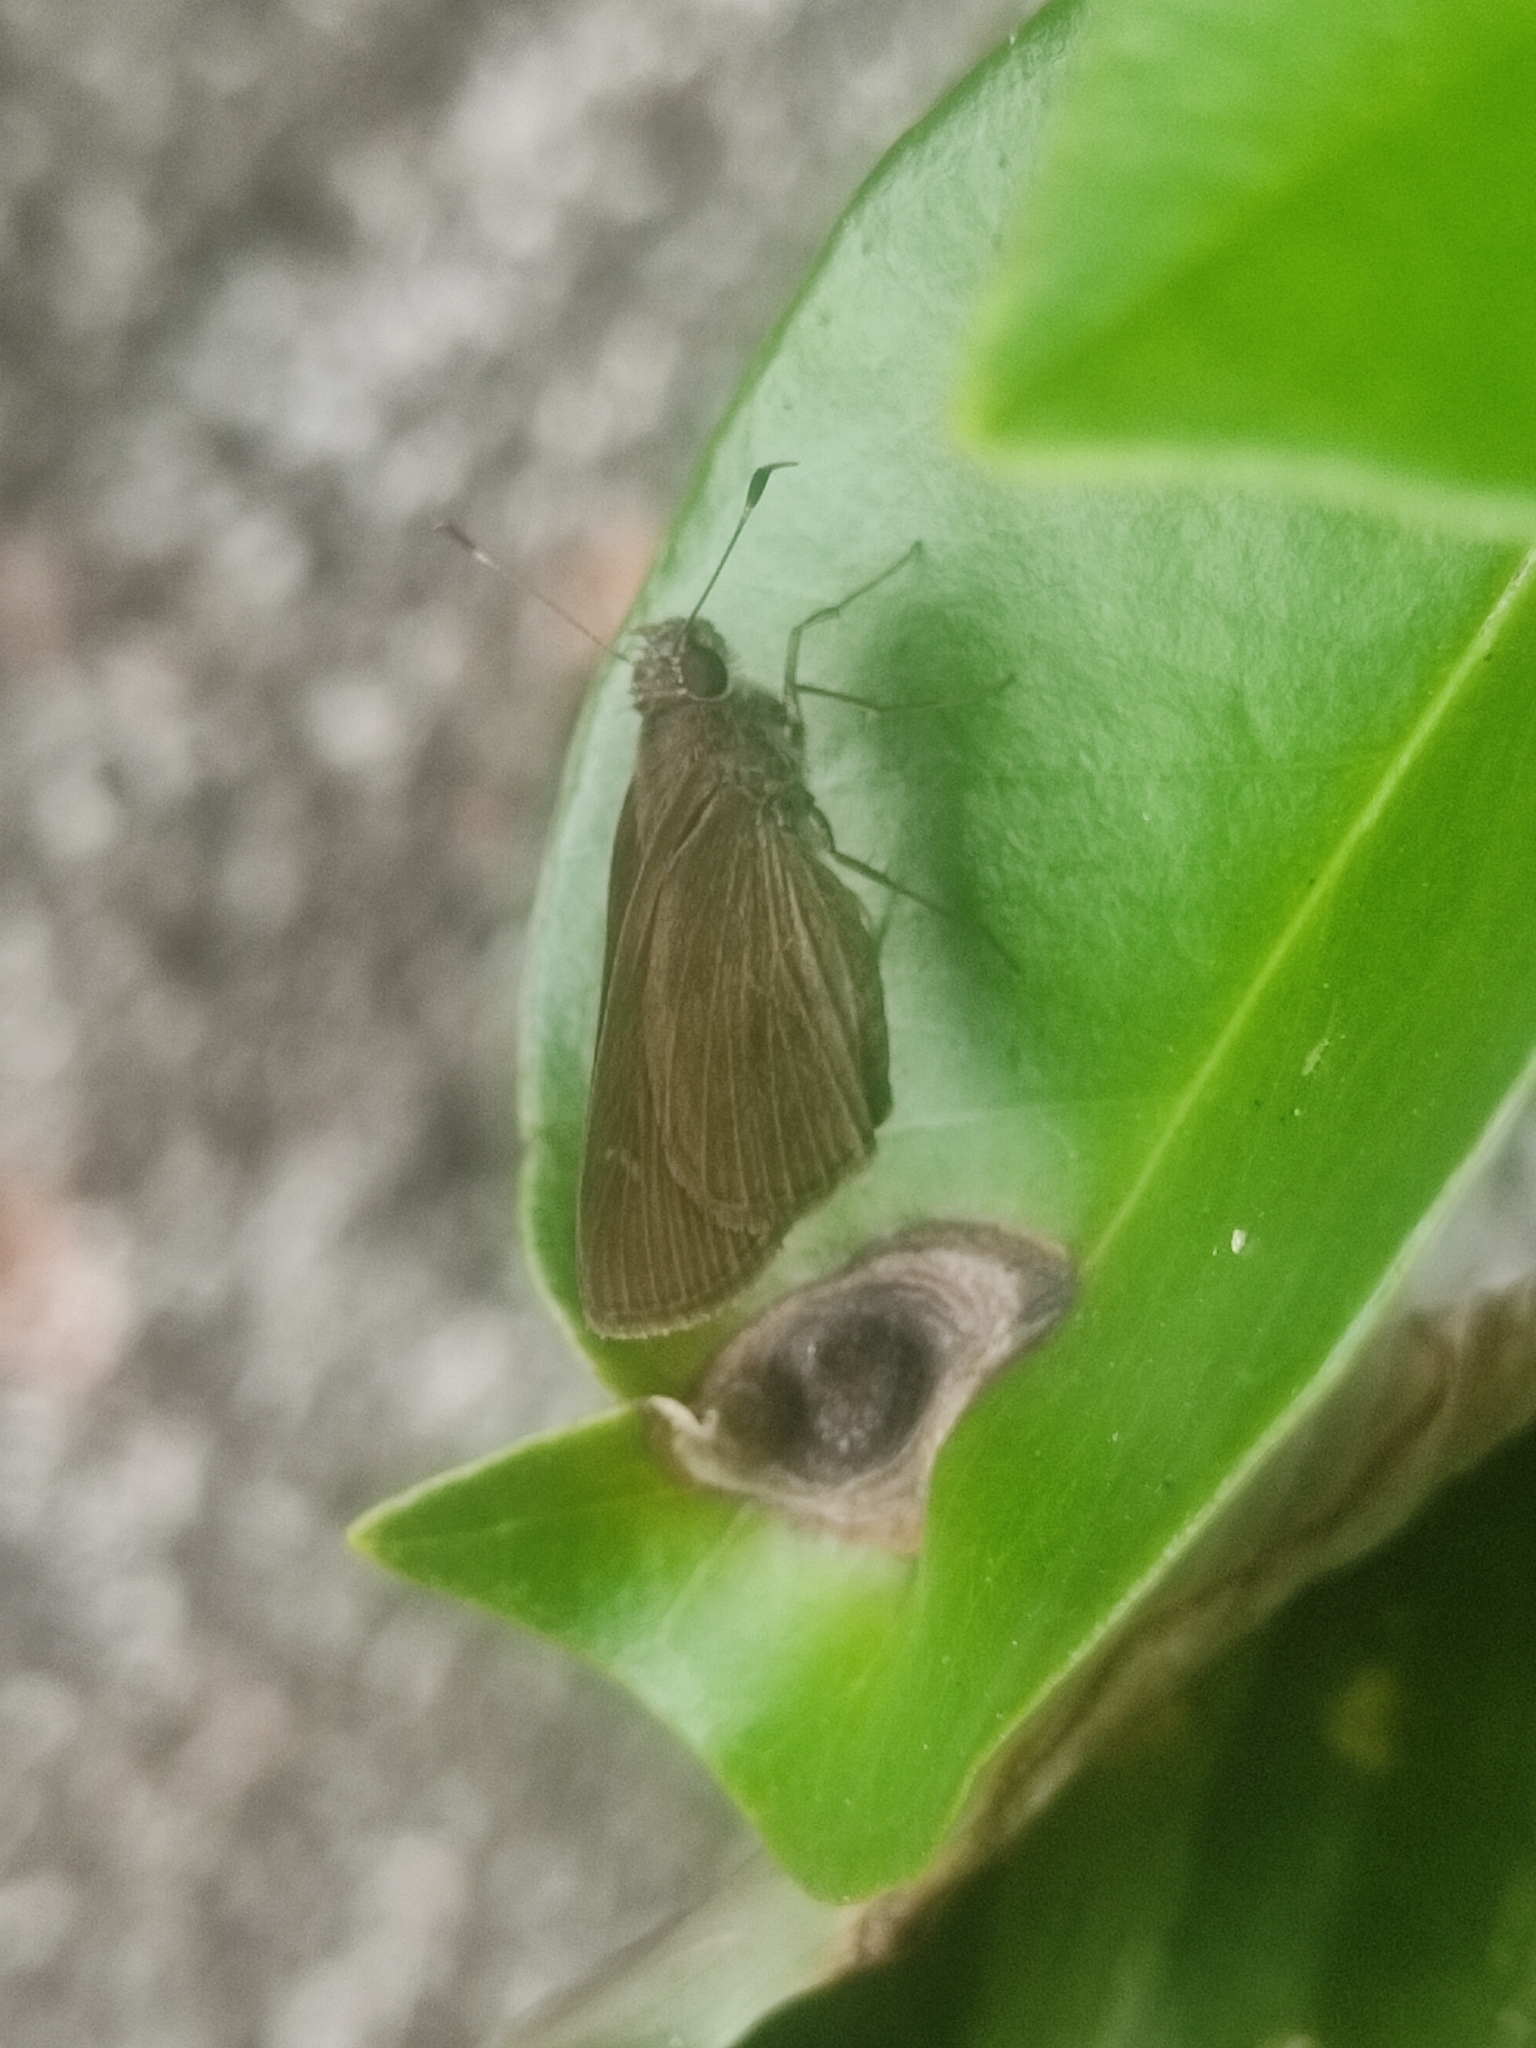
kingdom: Animalia
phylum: Arthropoda
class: Insecta
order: Lepidoptera
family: Hesperiidae
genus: Cymaenes
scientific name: Cymaenes tripunctus
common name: Dingy dotted skipper
